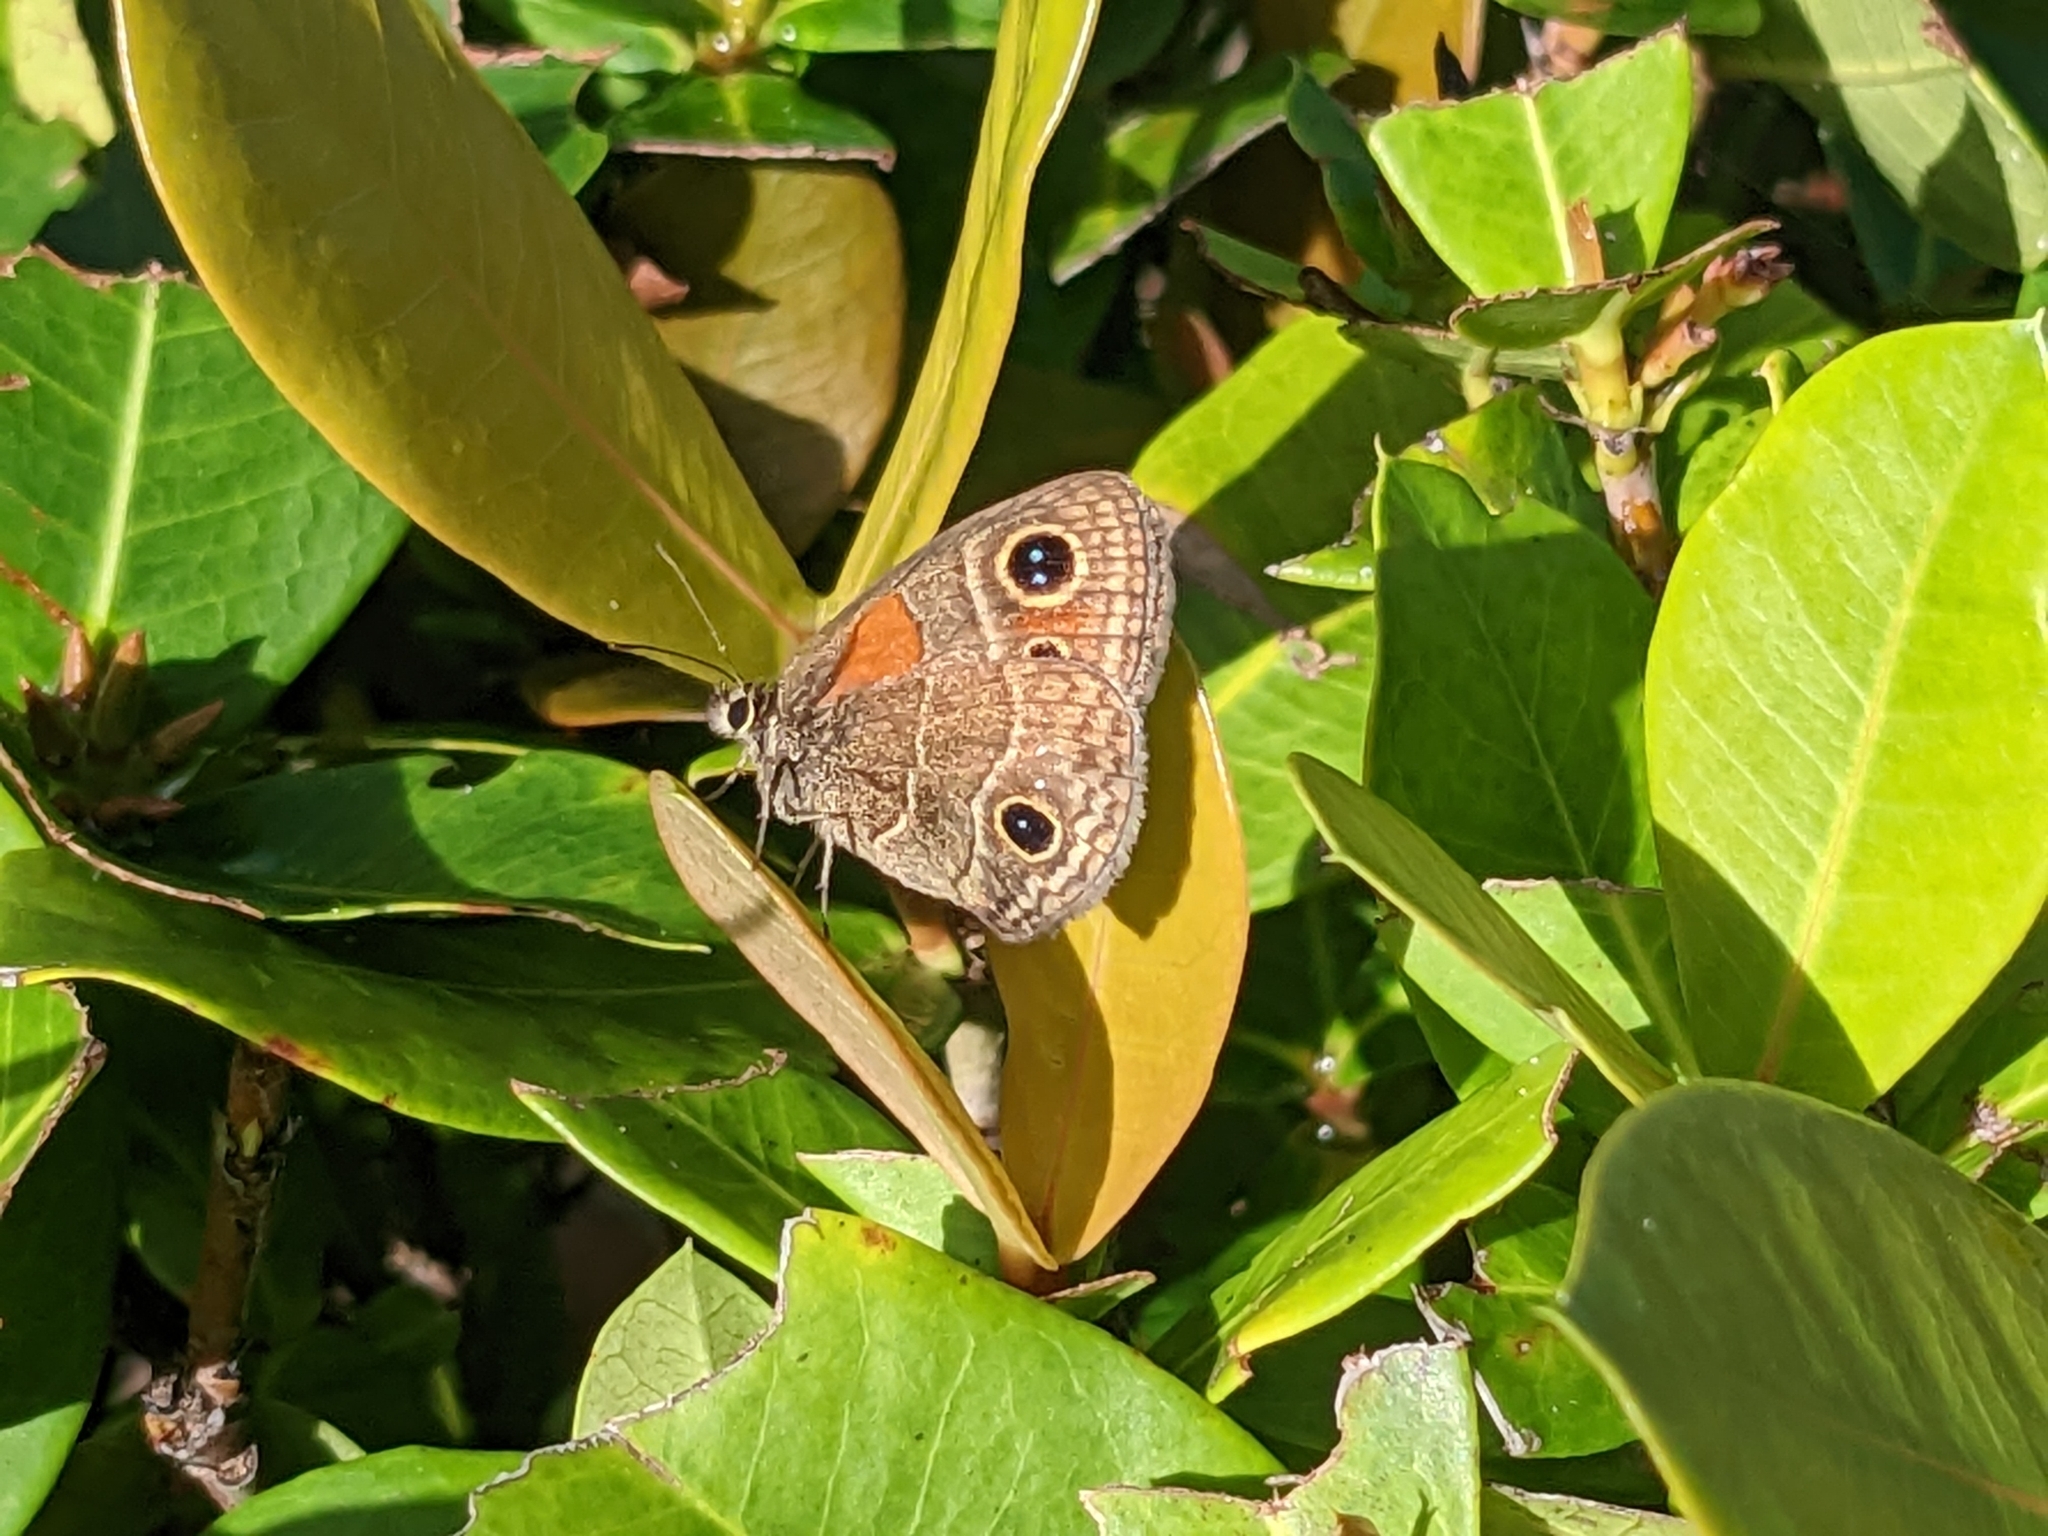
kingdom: Animalia
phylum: Arthropoda
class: Insecta
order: Lepidoptera
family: Nymphalidae
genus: Calisto
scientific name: Calisto confusa
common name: Confused calisto
